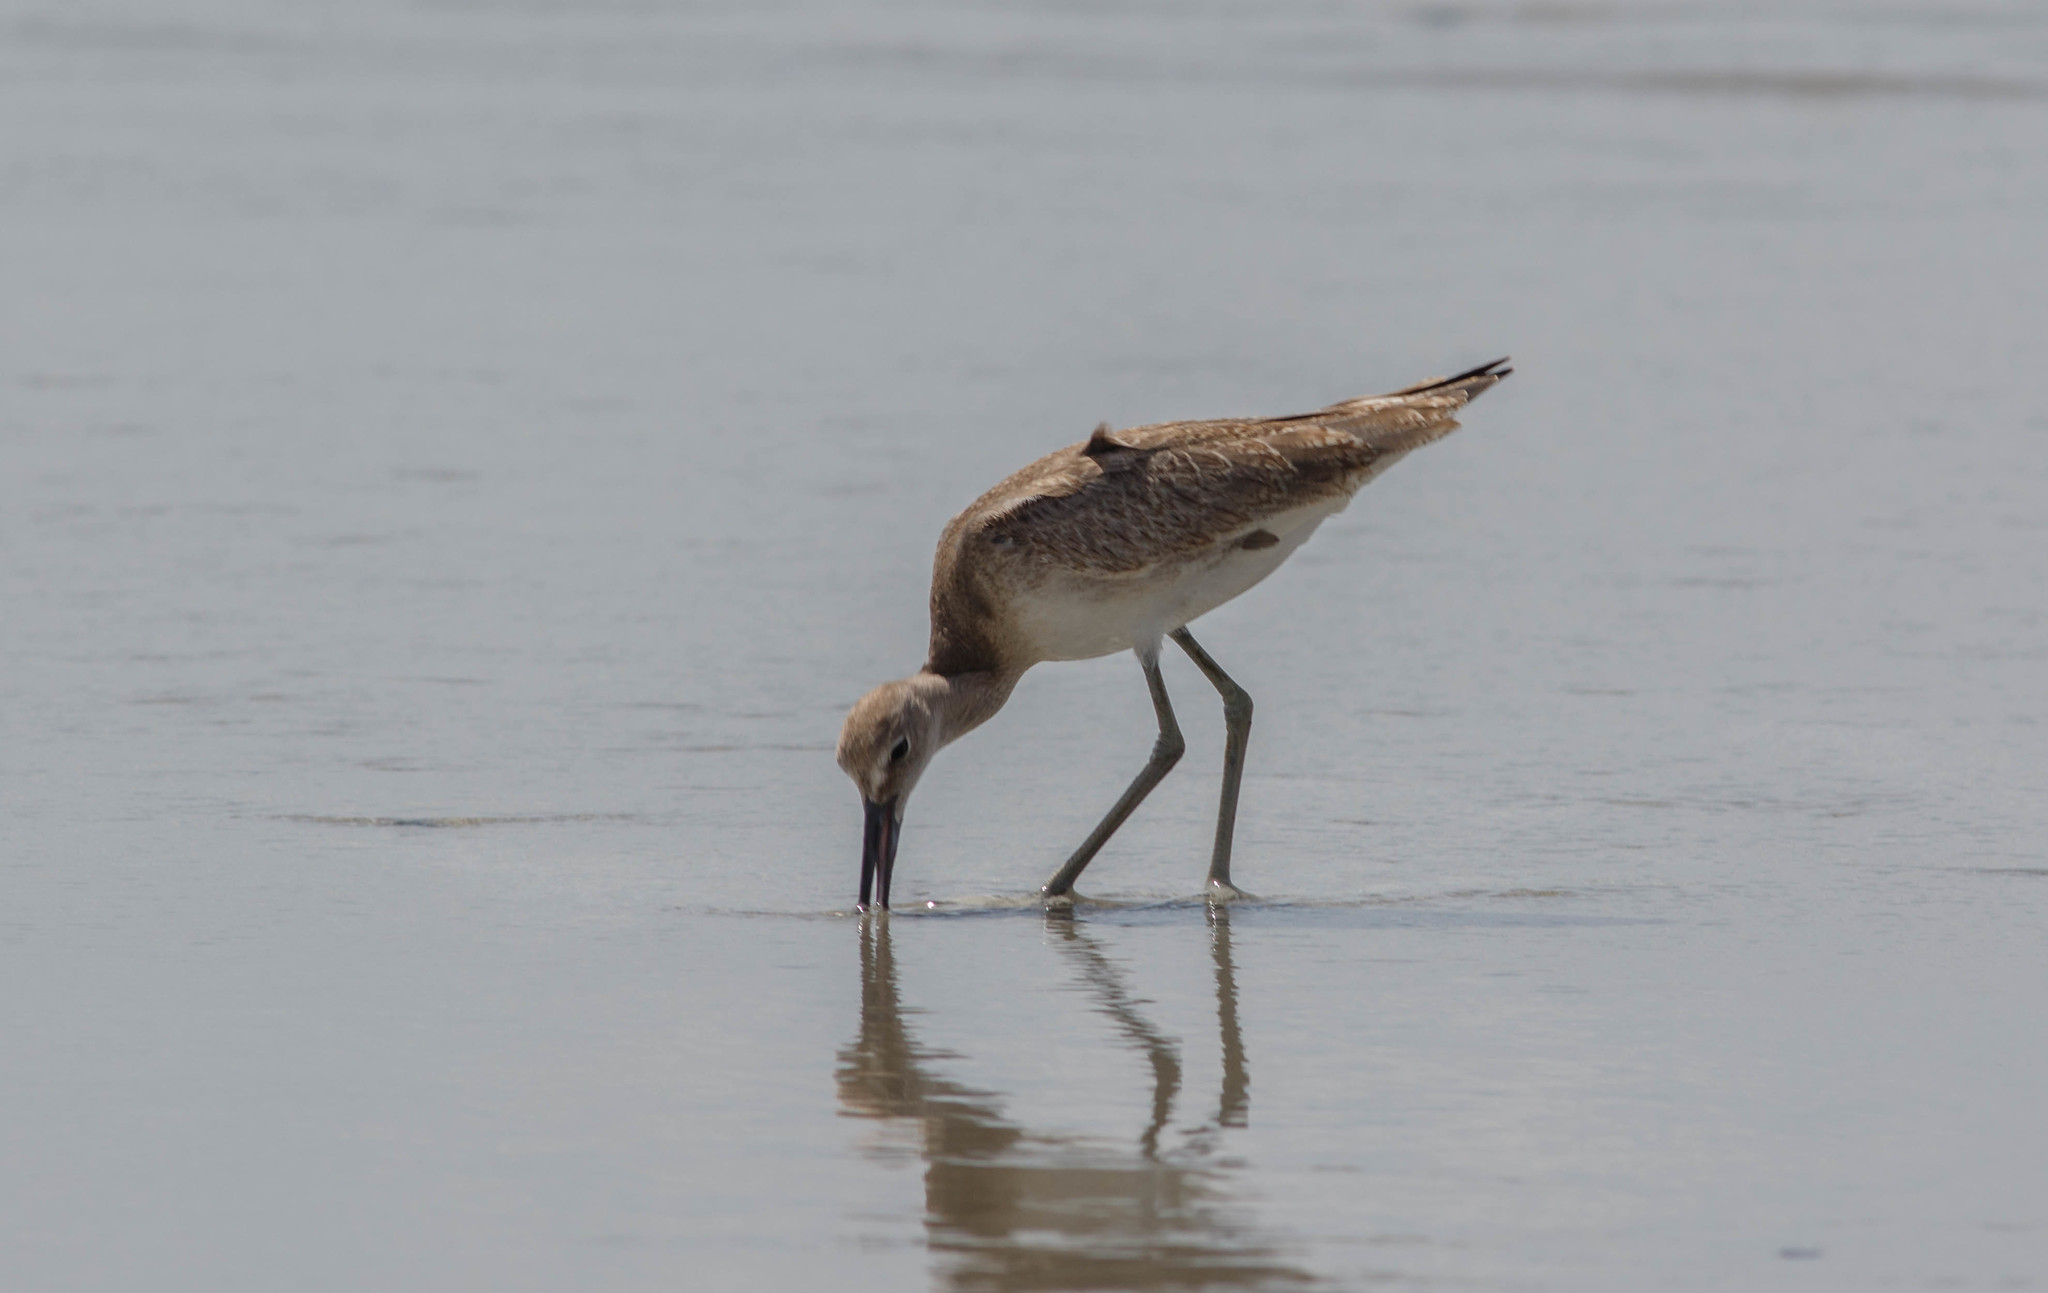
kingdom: Animalia
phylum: Chordata
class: Aves
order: Charadriiformes
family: Scolopacidae
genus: Tringa
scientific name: Tringa semipalmata
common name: Willet
